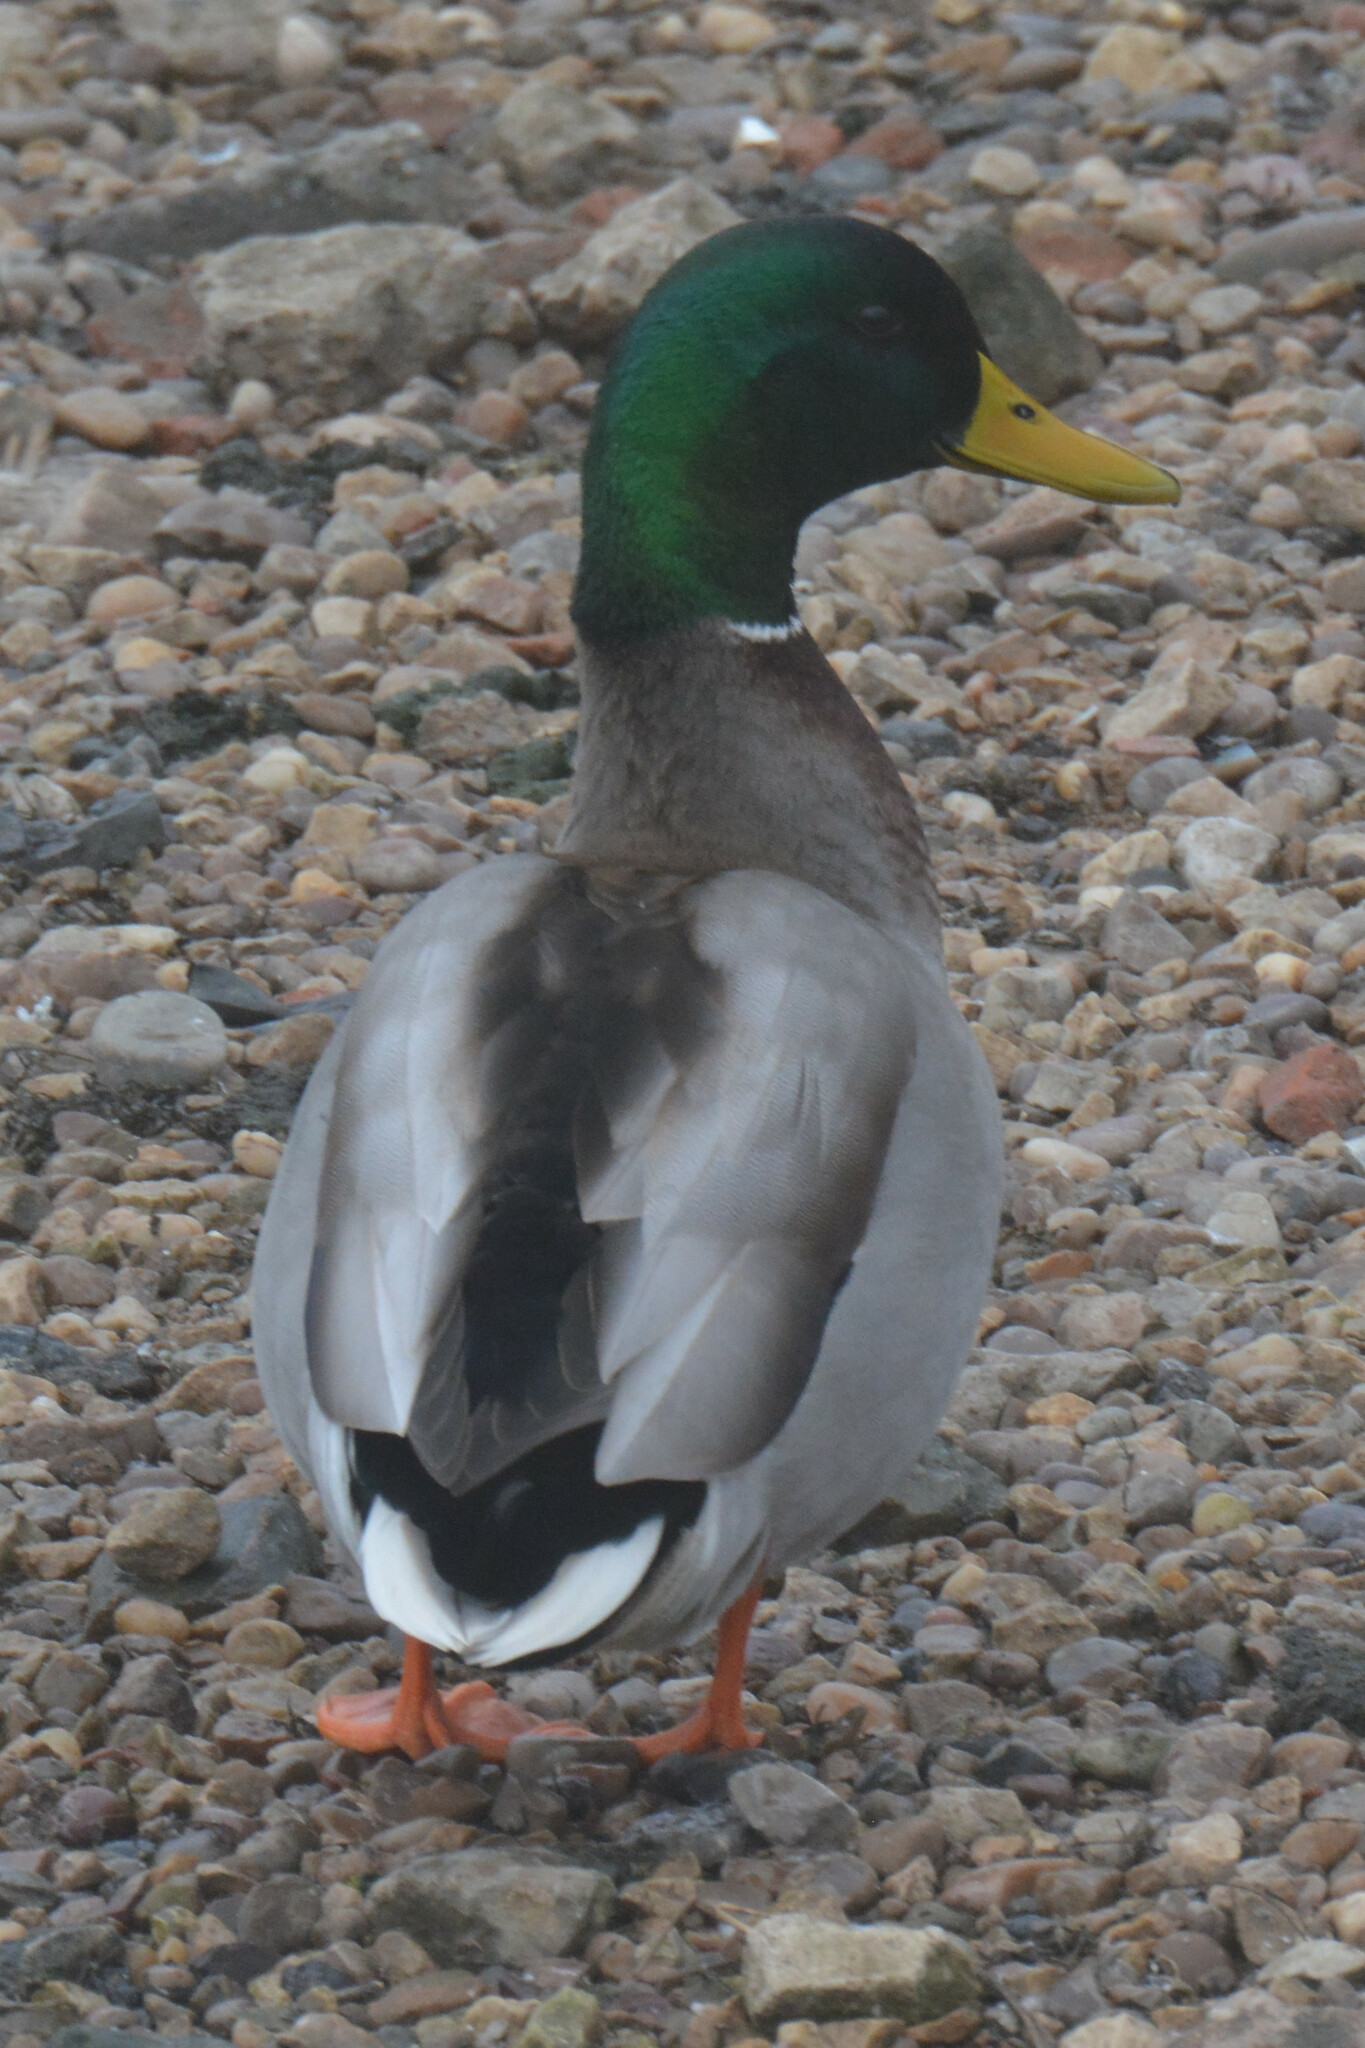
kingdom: Animalia
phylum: Chordata
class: Aves
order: Anseriformes
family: Anatidae
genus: Anas
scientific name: Anas platyrhynchos
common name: Mallard
